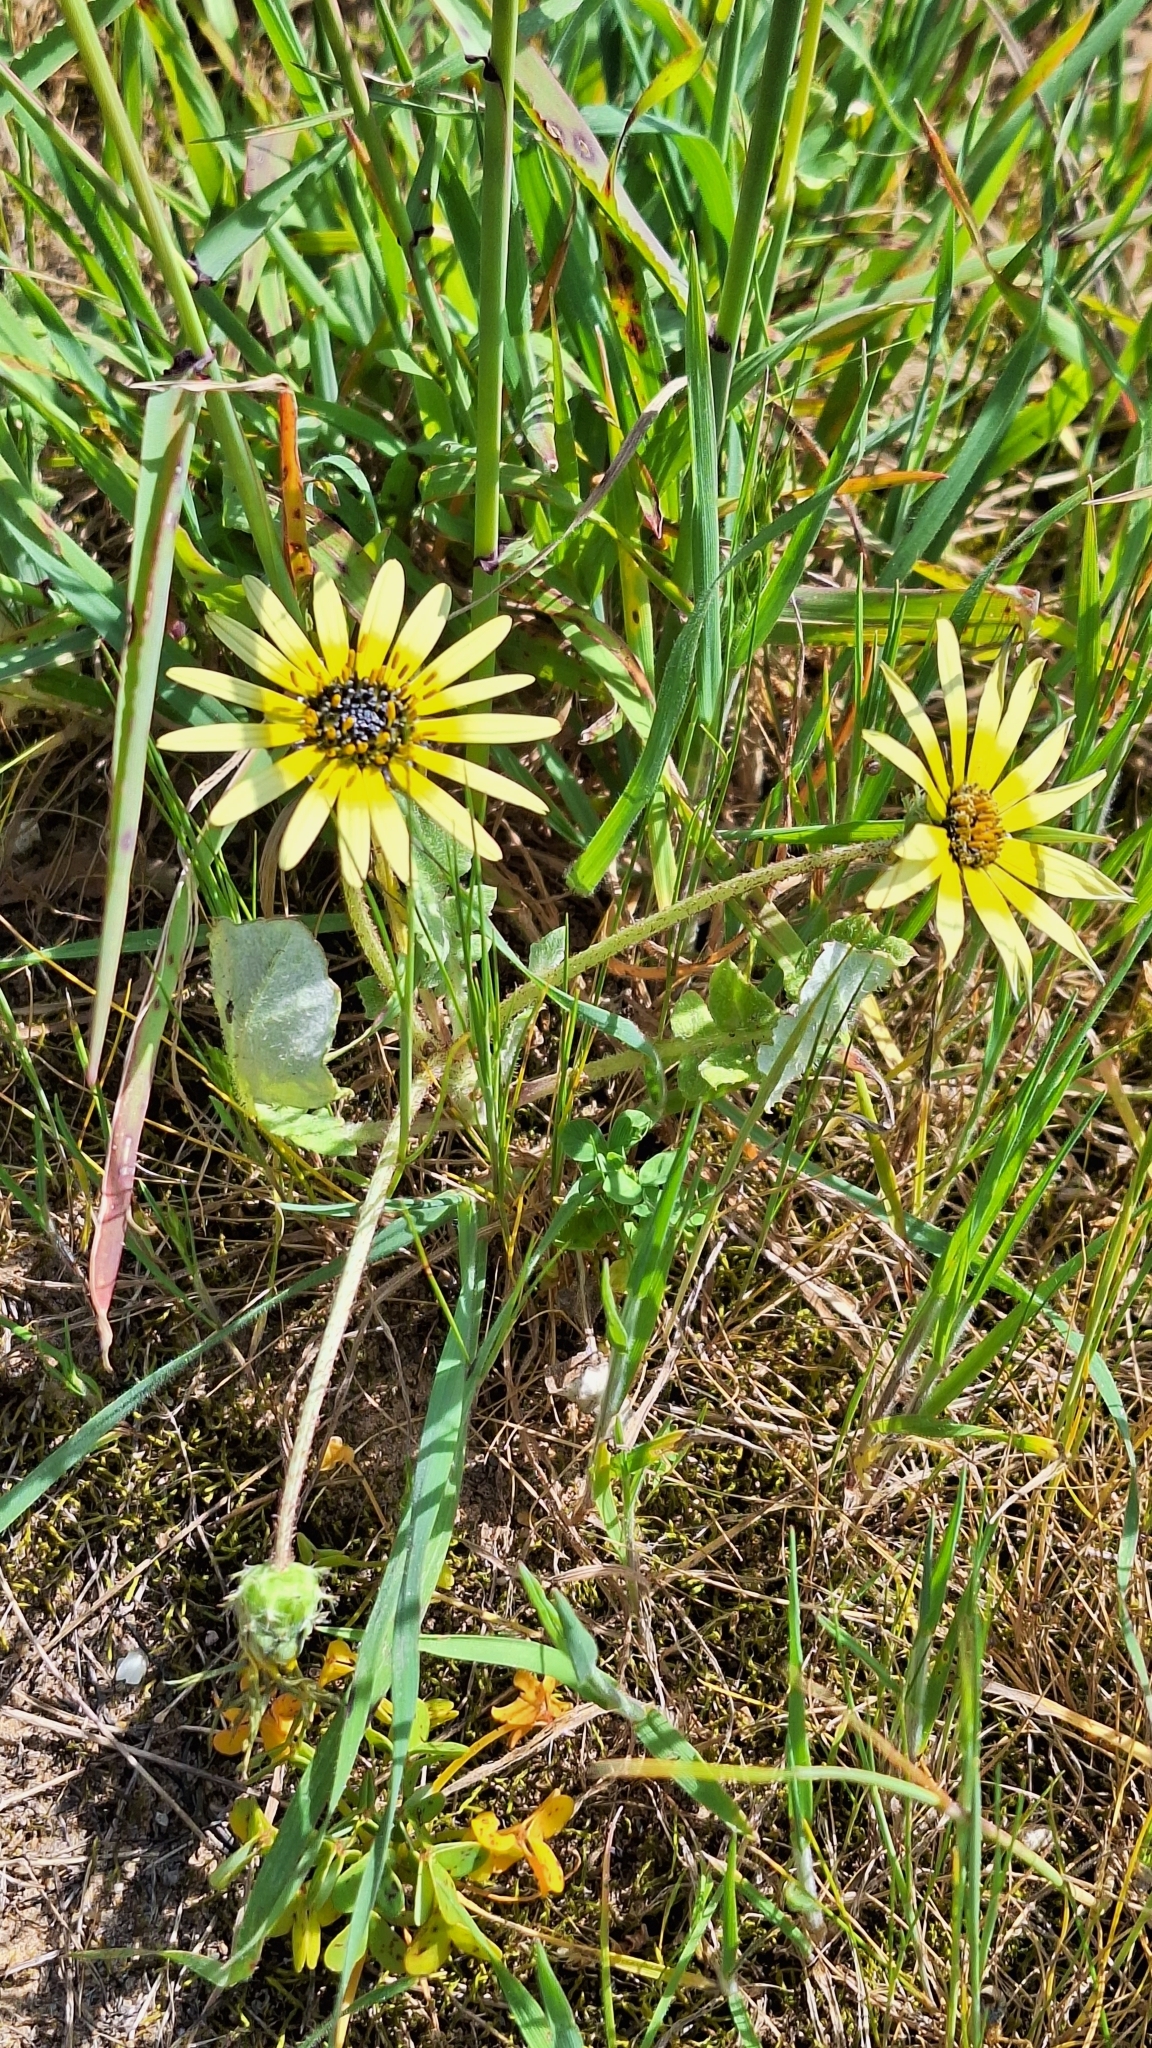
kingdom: Plantae
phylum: Tracheophyta
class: Magnoliopsida
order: Asterales
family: Asteraceae
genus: Arctotheca
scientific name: Arctotheca calendula
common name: Capeweed
